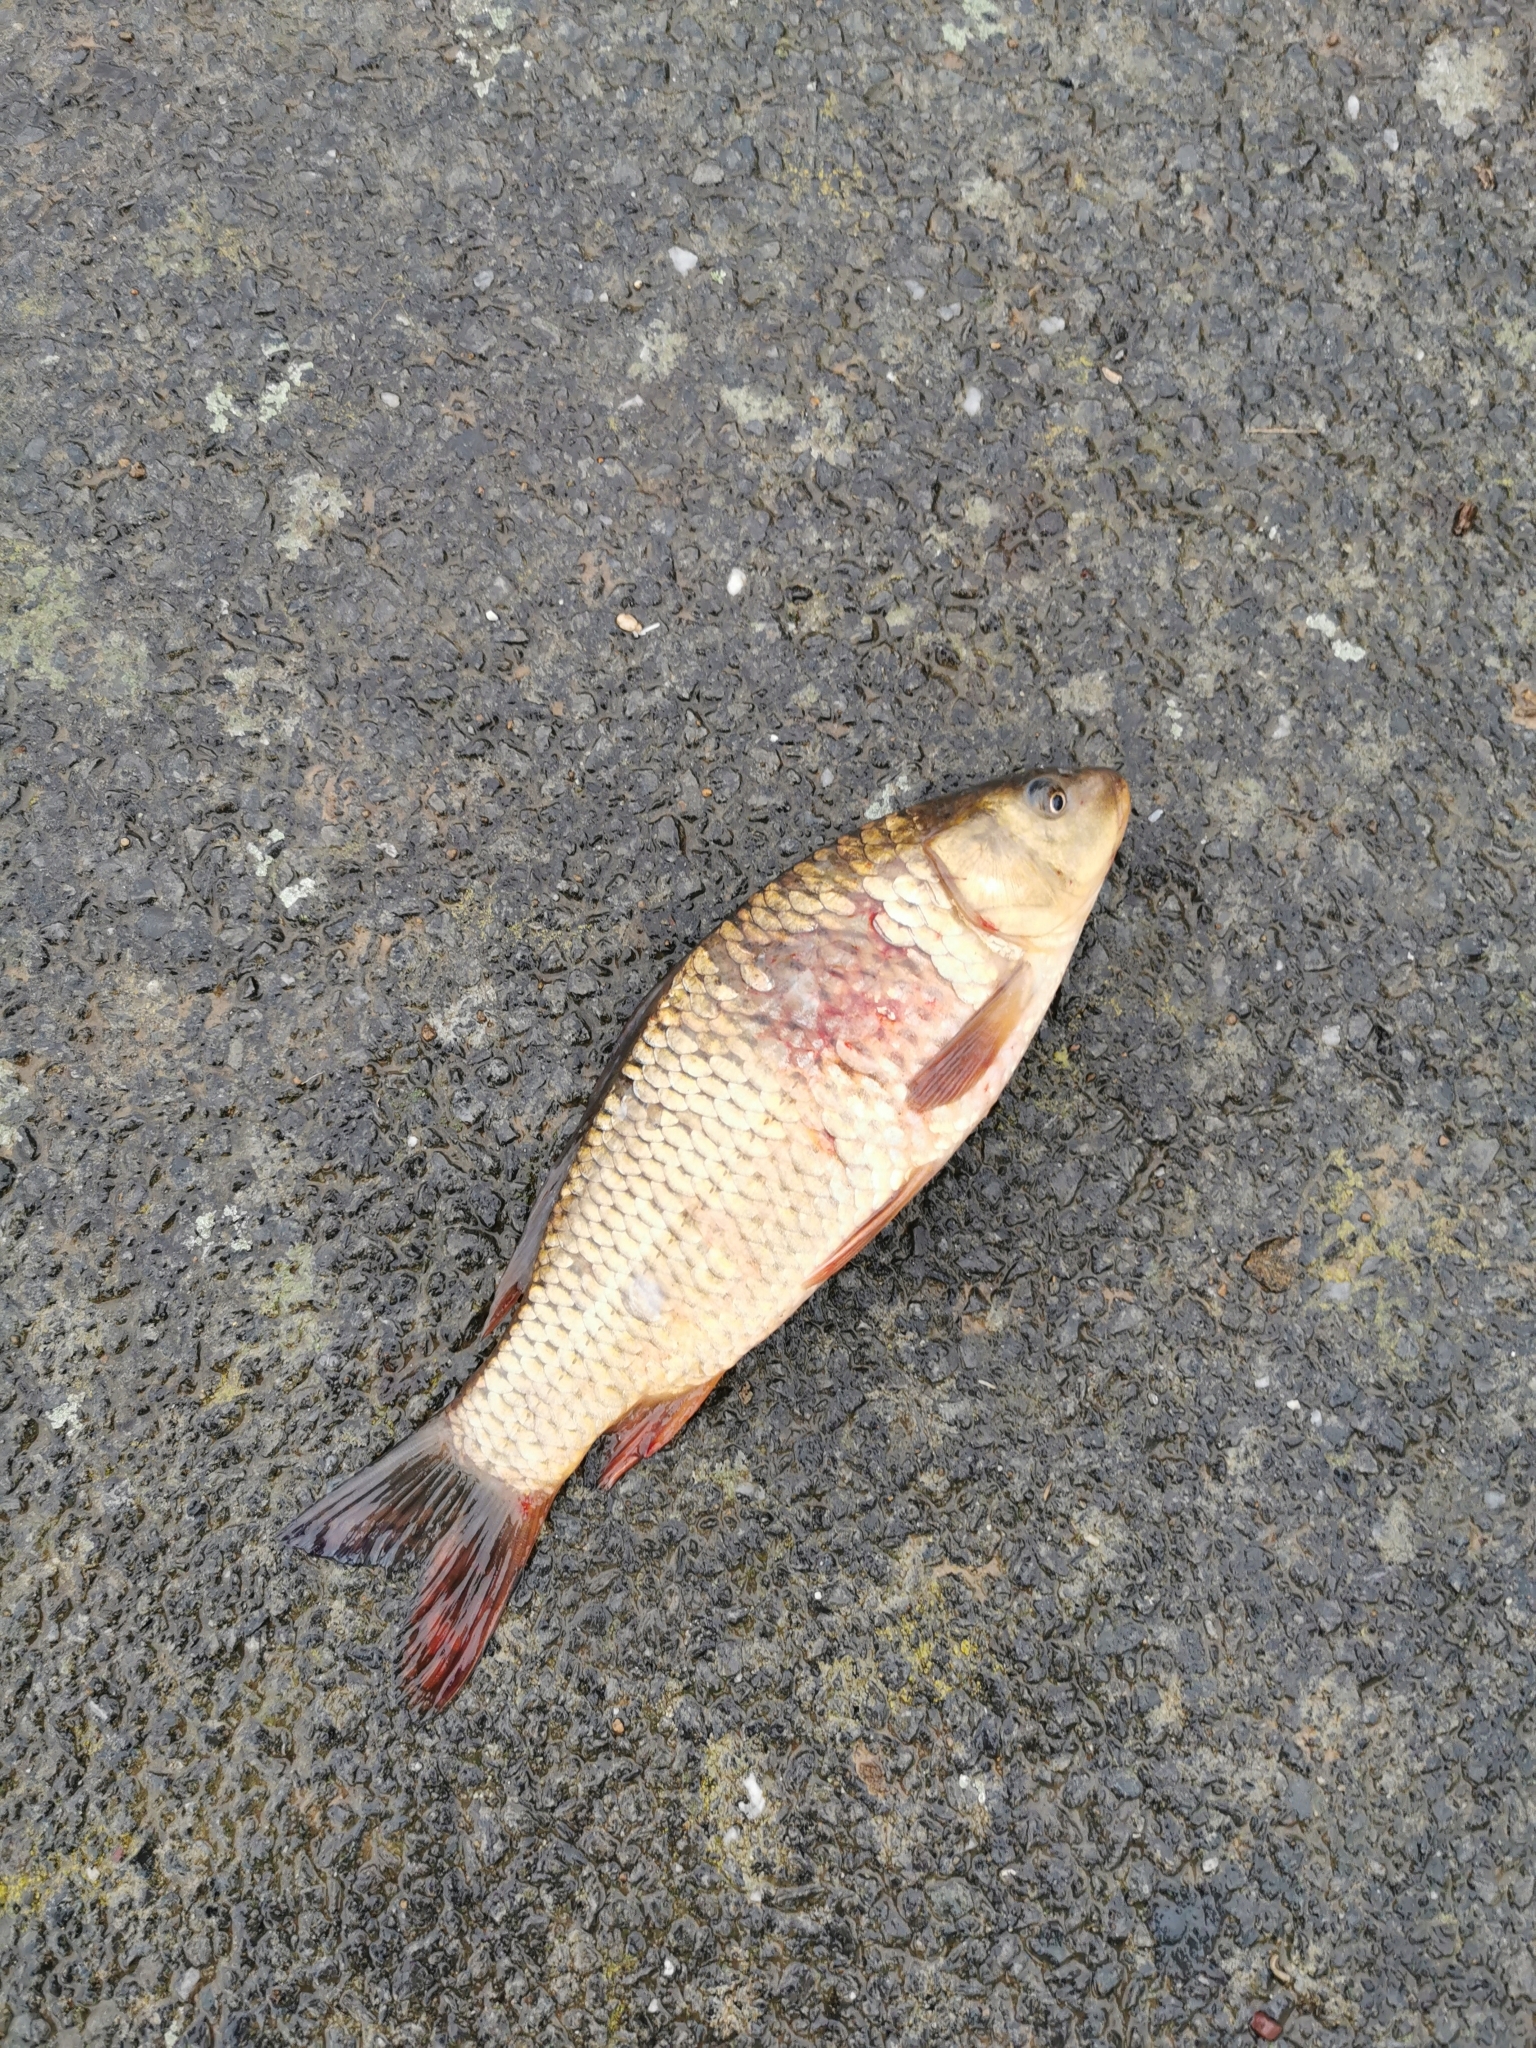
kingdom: Animalia
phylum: Chordata
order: Cypriniformes
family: Cyprinidae
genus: Cyprinus
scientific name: Cyprinus carpio
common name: Common carp
